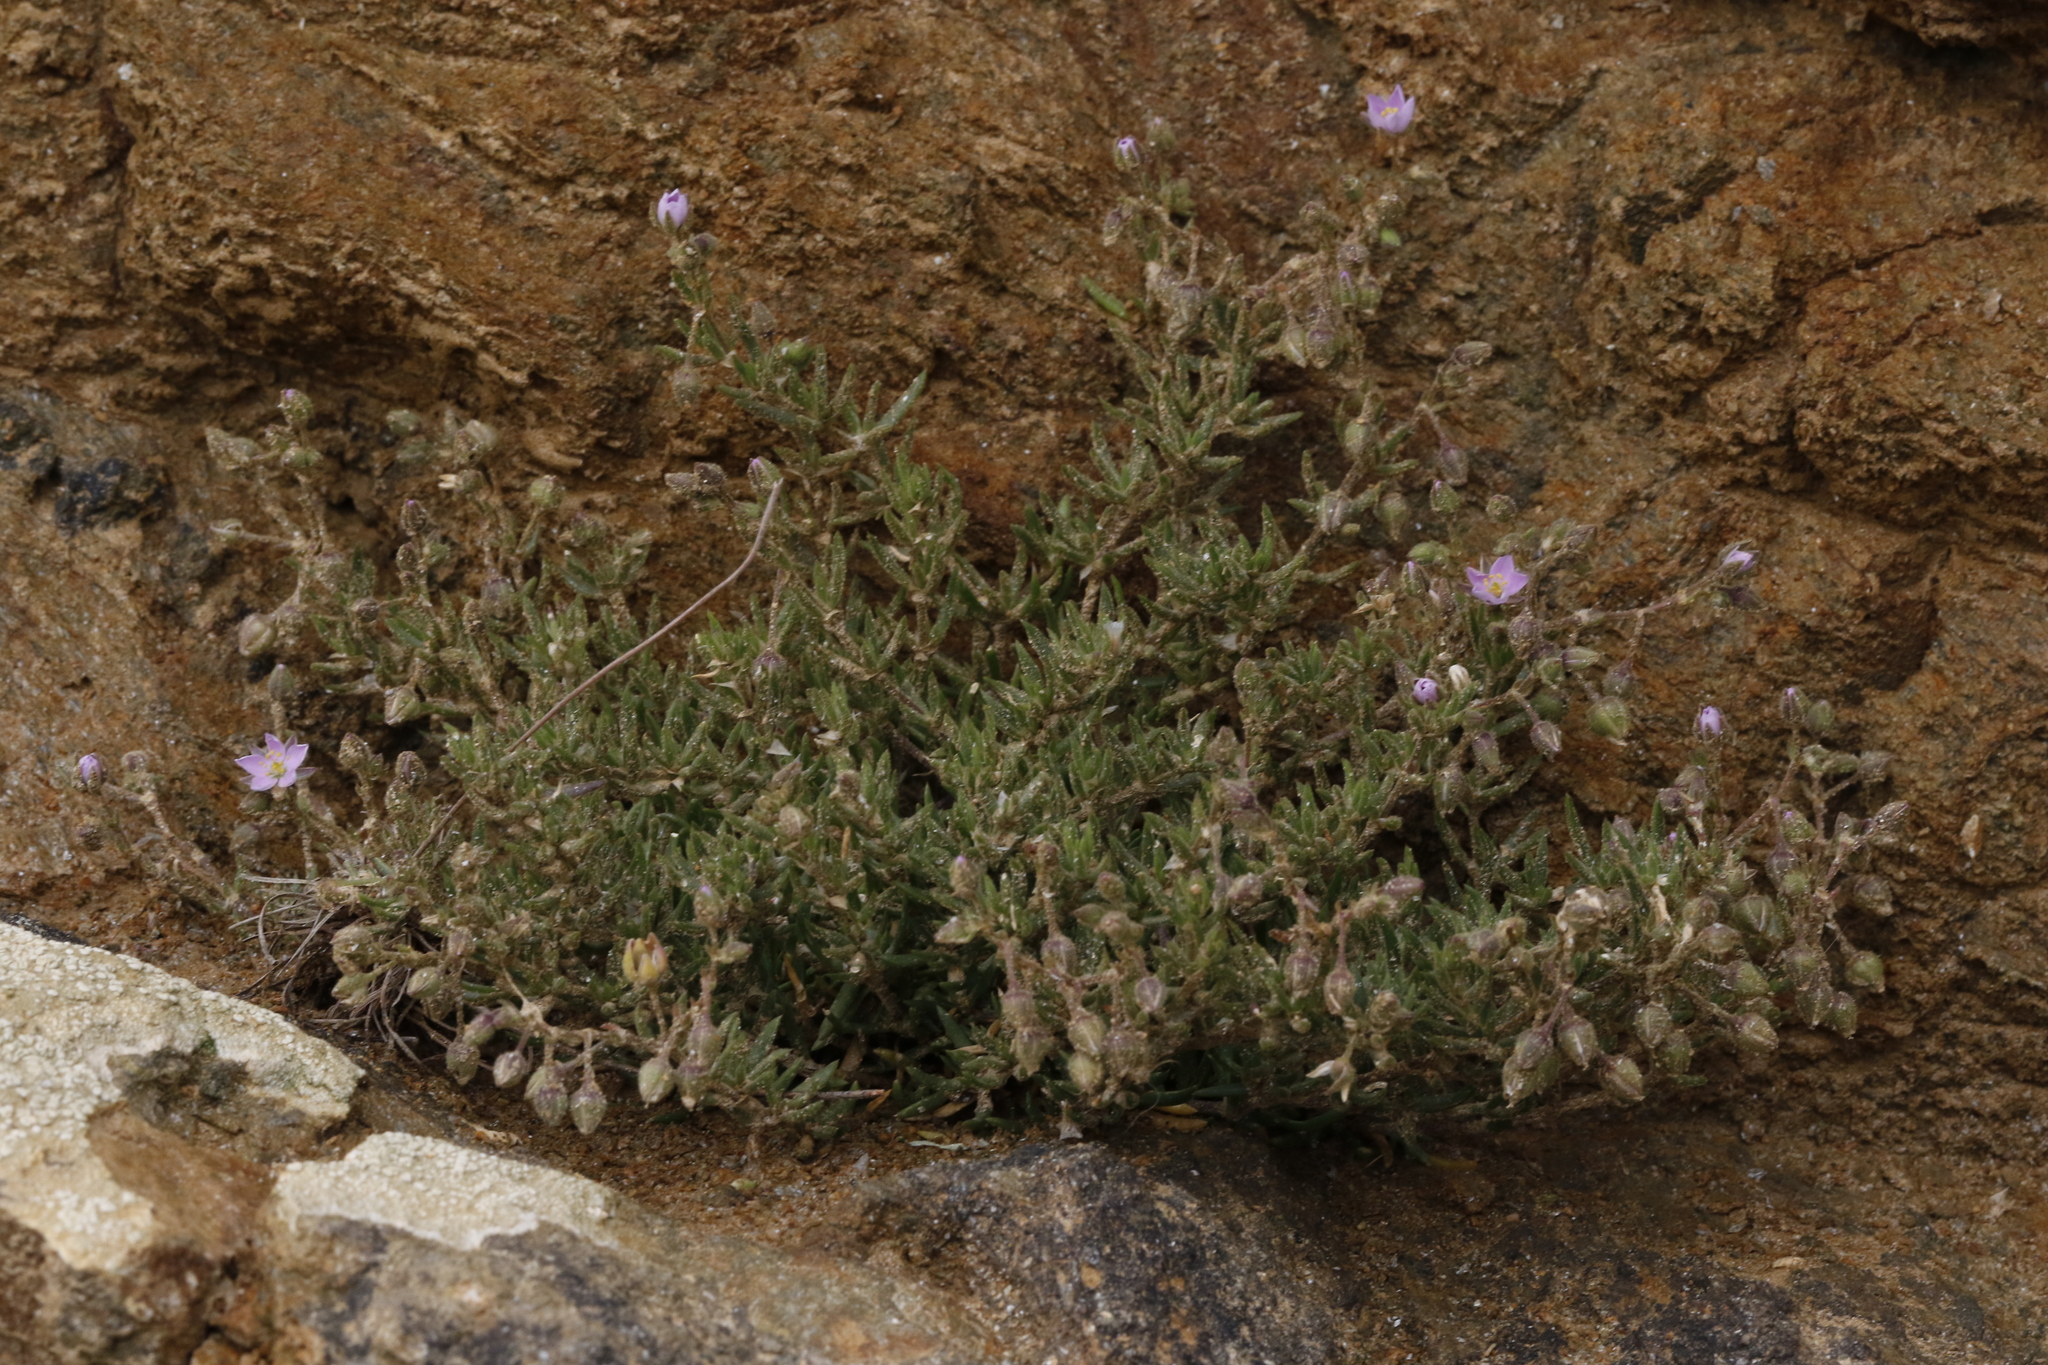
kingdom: Plantae
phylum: Tracheophyta
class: Magnoliopsida
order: Caryophyllales
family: Caryophyllaceae
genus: Spergularia
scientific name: Spergularia marina
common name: Lesser sea-spurrey
